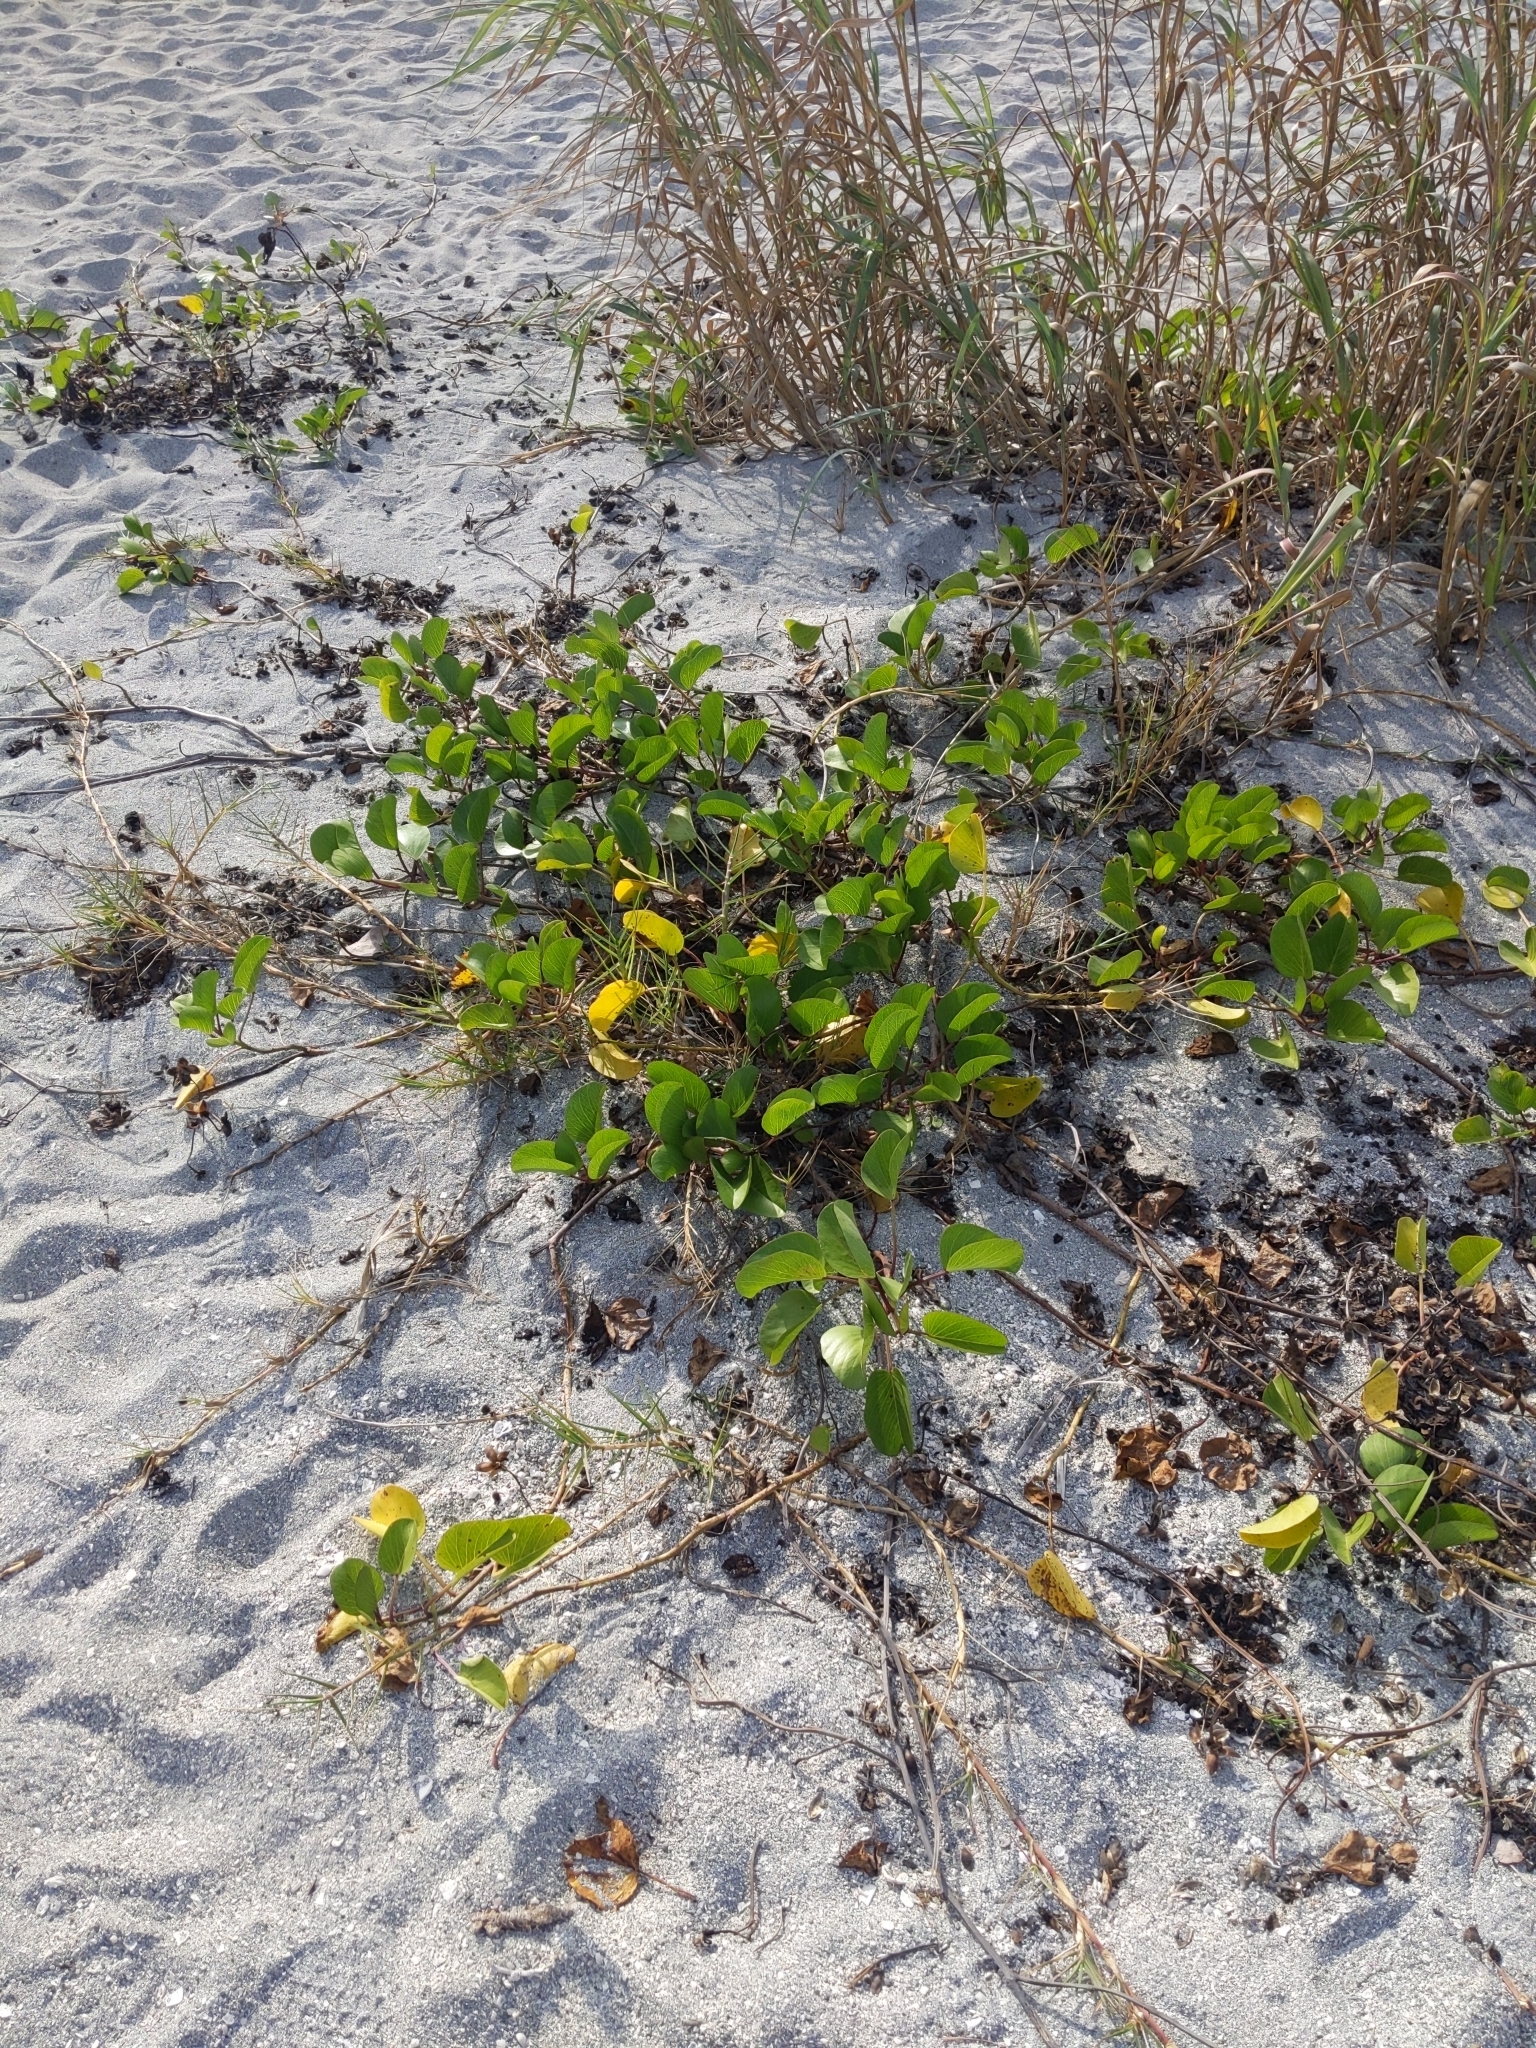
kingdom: Plantae
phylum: Tracheophyta
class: Magnoliopsida
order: Solanales
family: Convolvulaceae
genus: Ipomoea
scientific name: Ipomoea pes-caprae
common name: Beach morning glory
